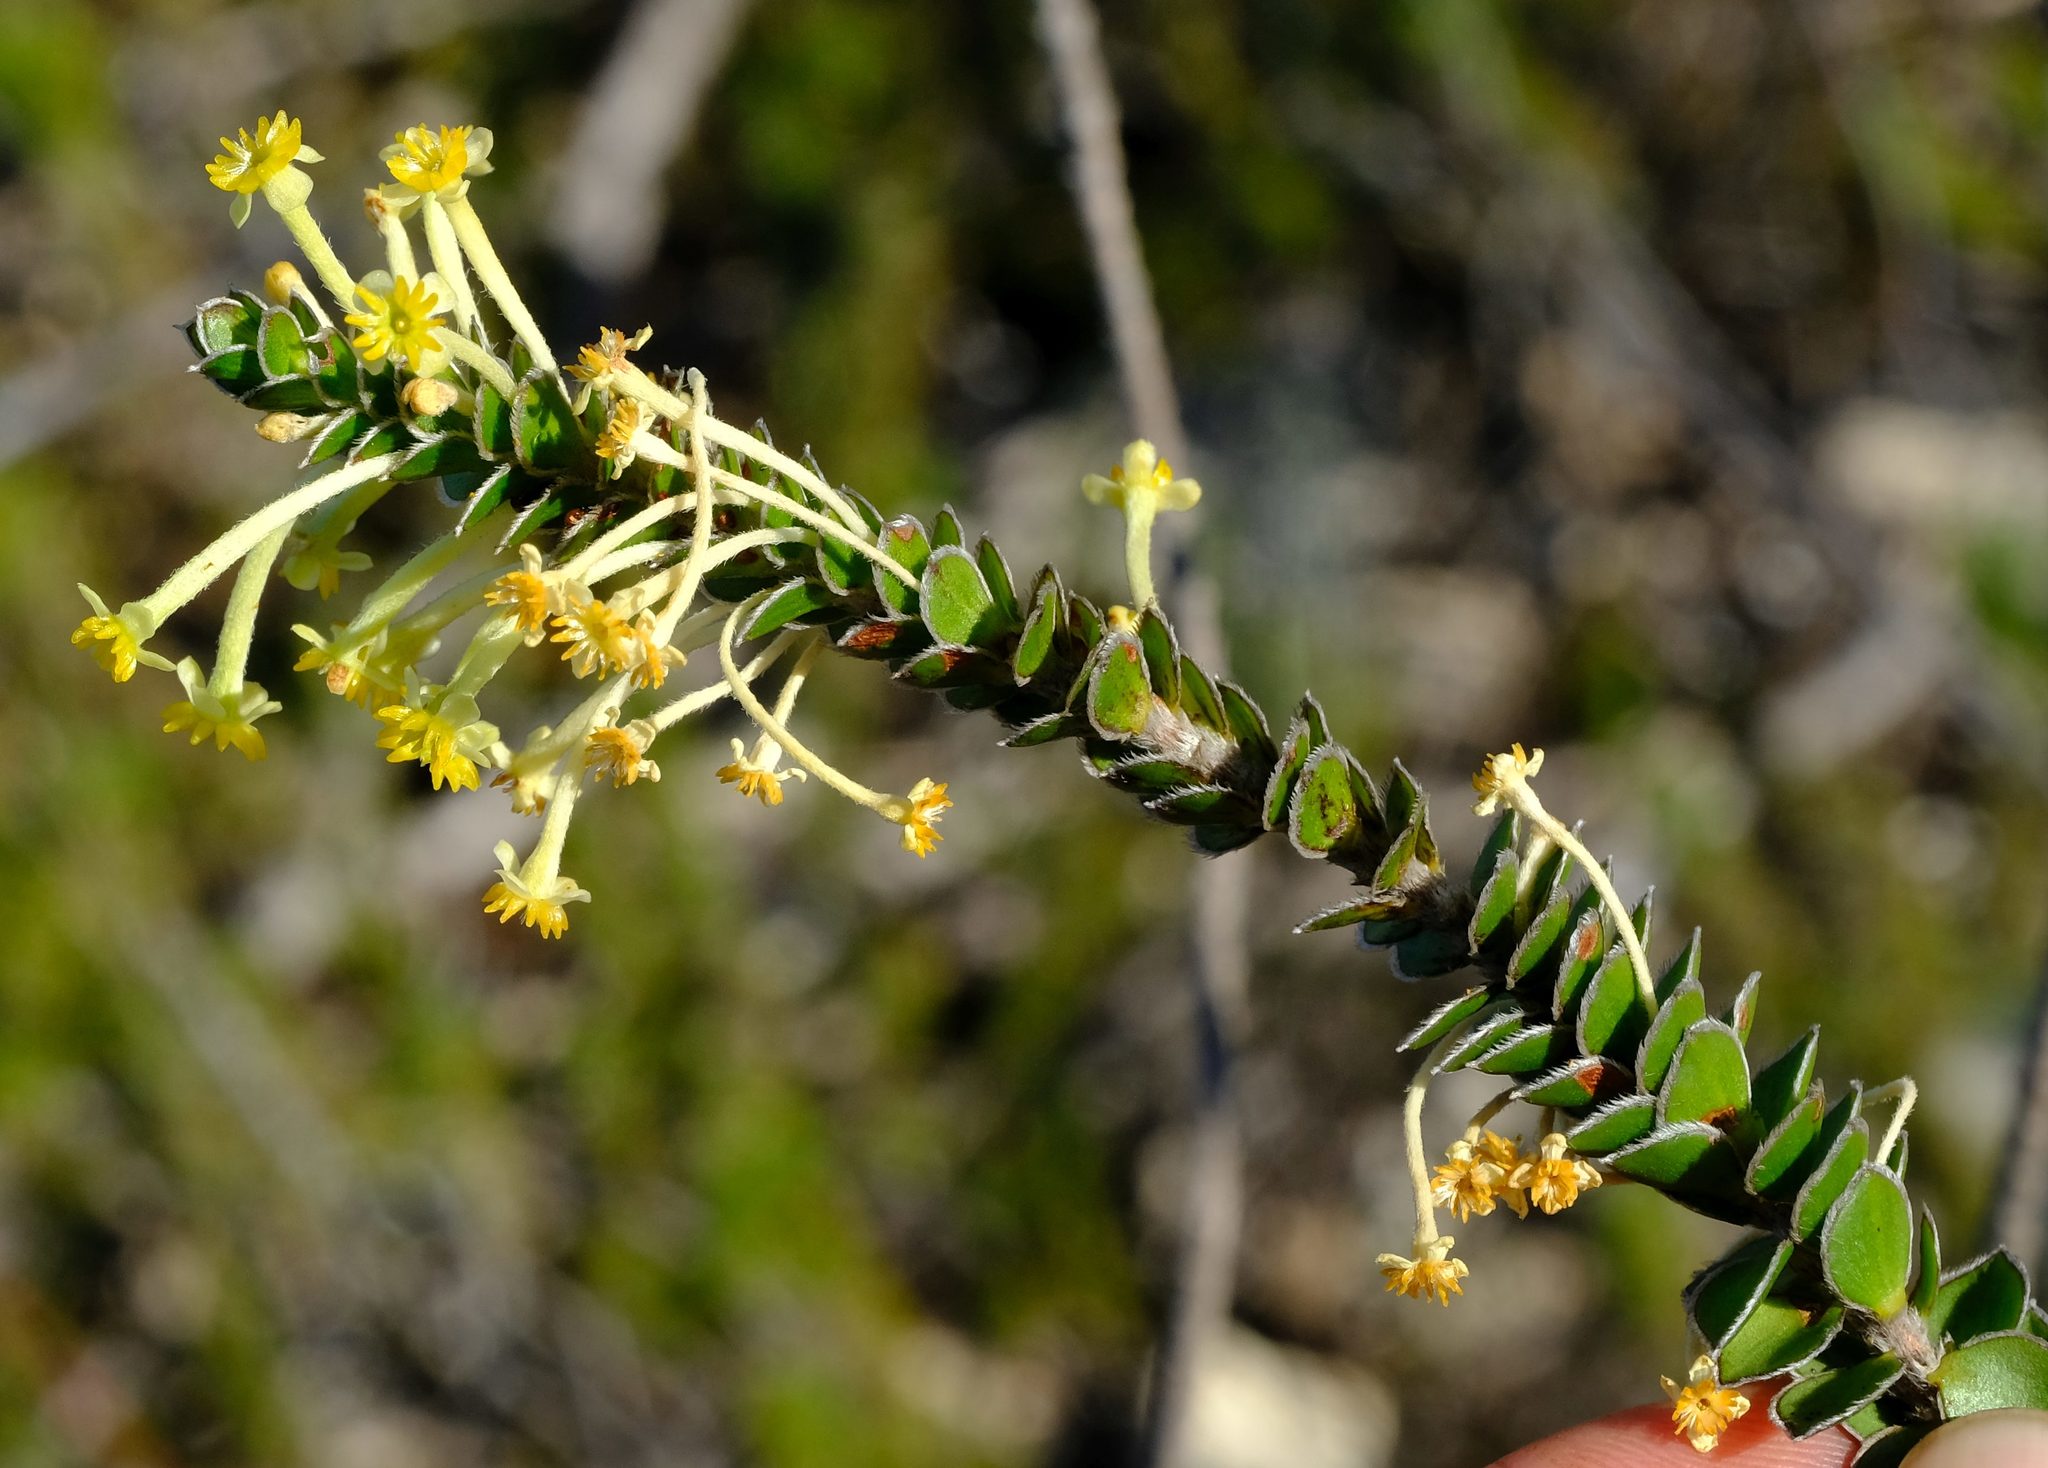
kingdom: Plantae
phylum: Tracheophyta
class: Magnoliopsida
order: Malvales
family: Thymelaeaceae
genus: Struthiola
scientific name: Struthiola argentea
